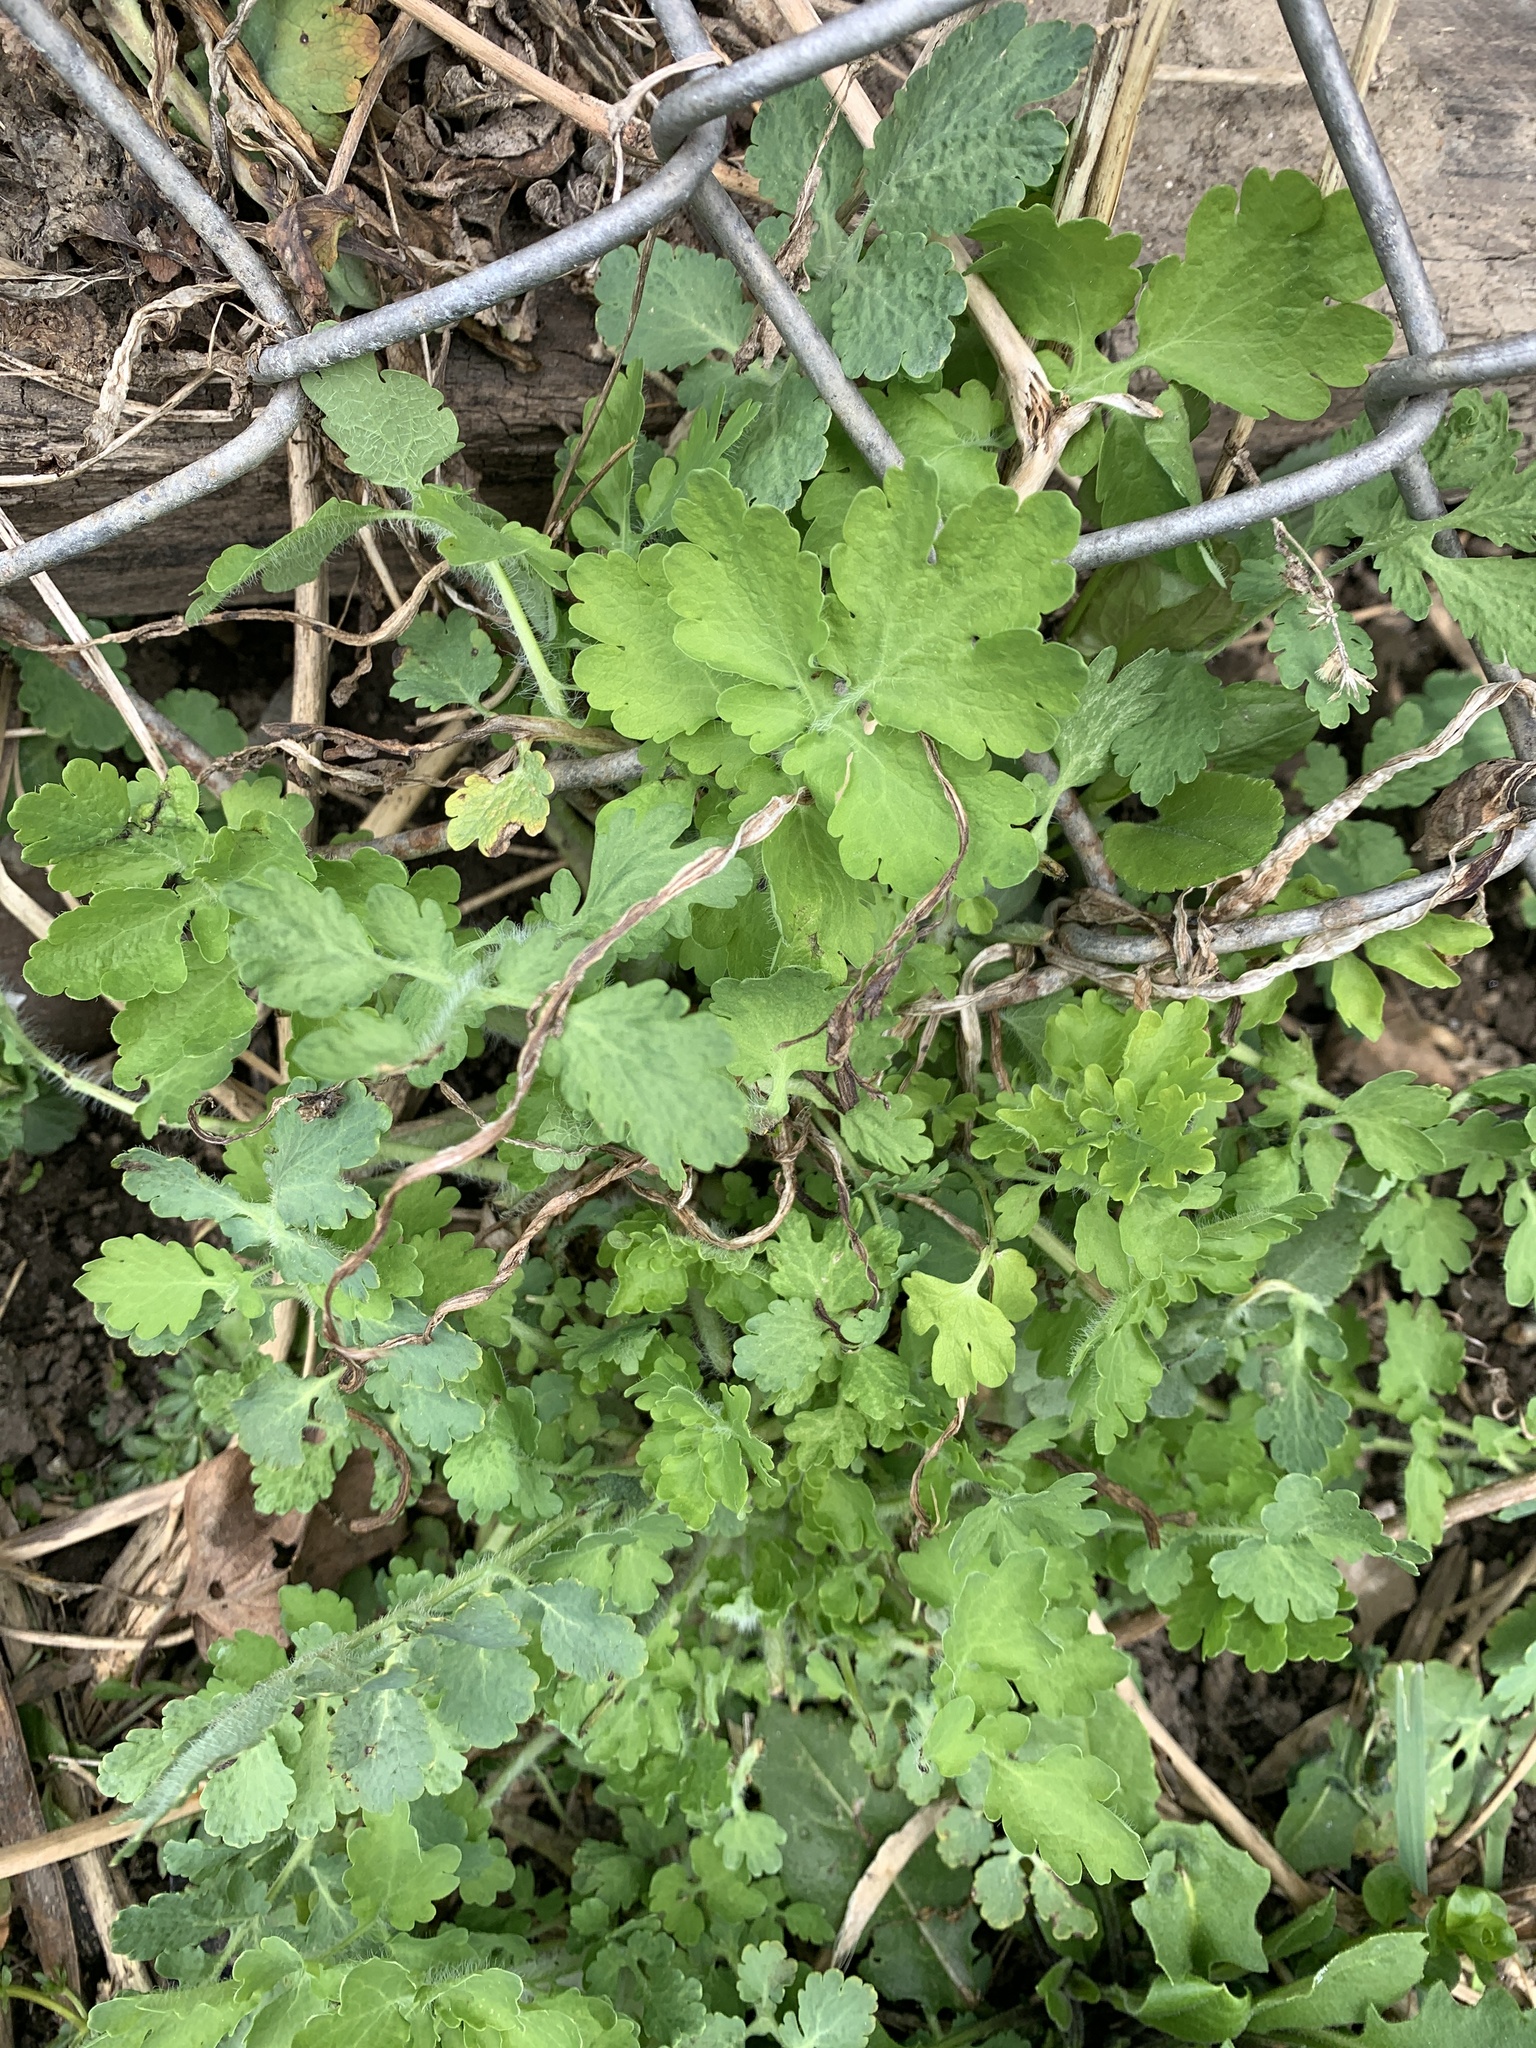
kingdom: Plantae
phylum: Tracheophyta
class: Magnoliopsida
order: Ranunculales
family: Papaveraceae
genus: Chelidonium
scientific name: Chelidonium majus
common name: Greater celandine
